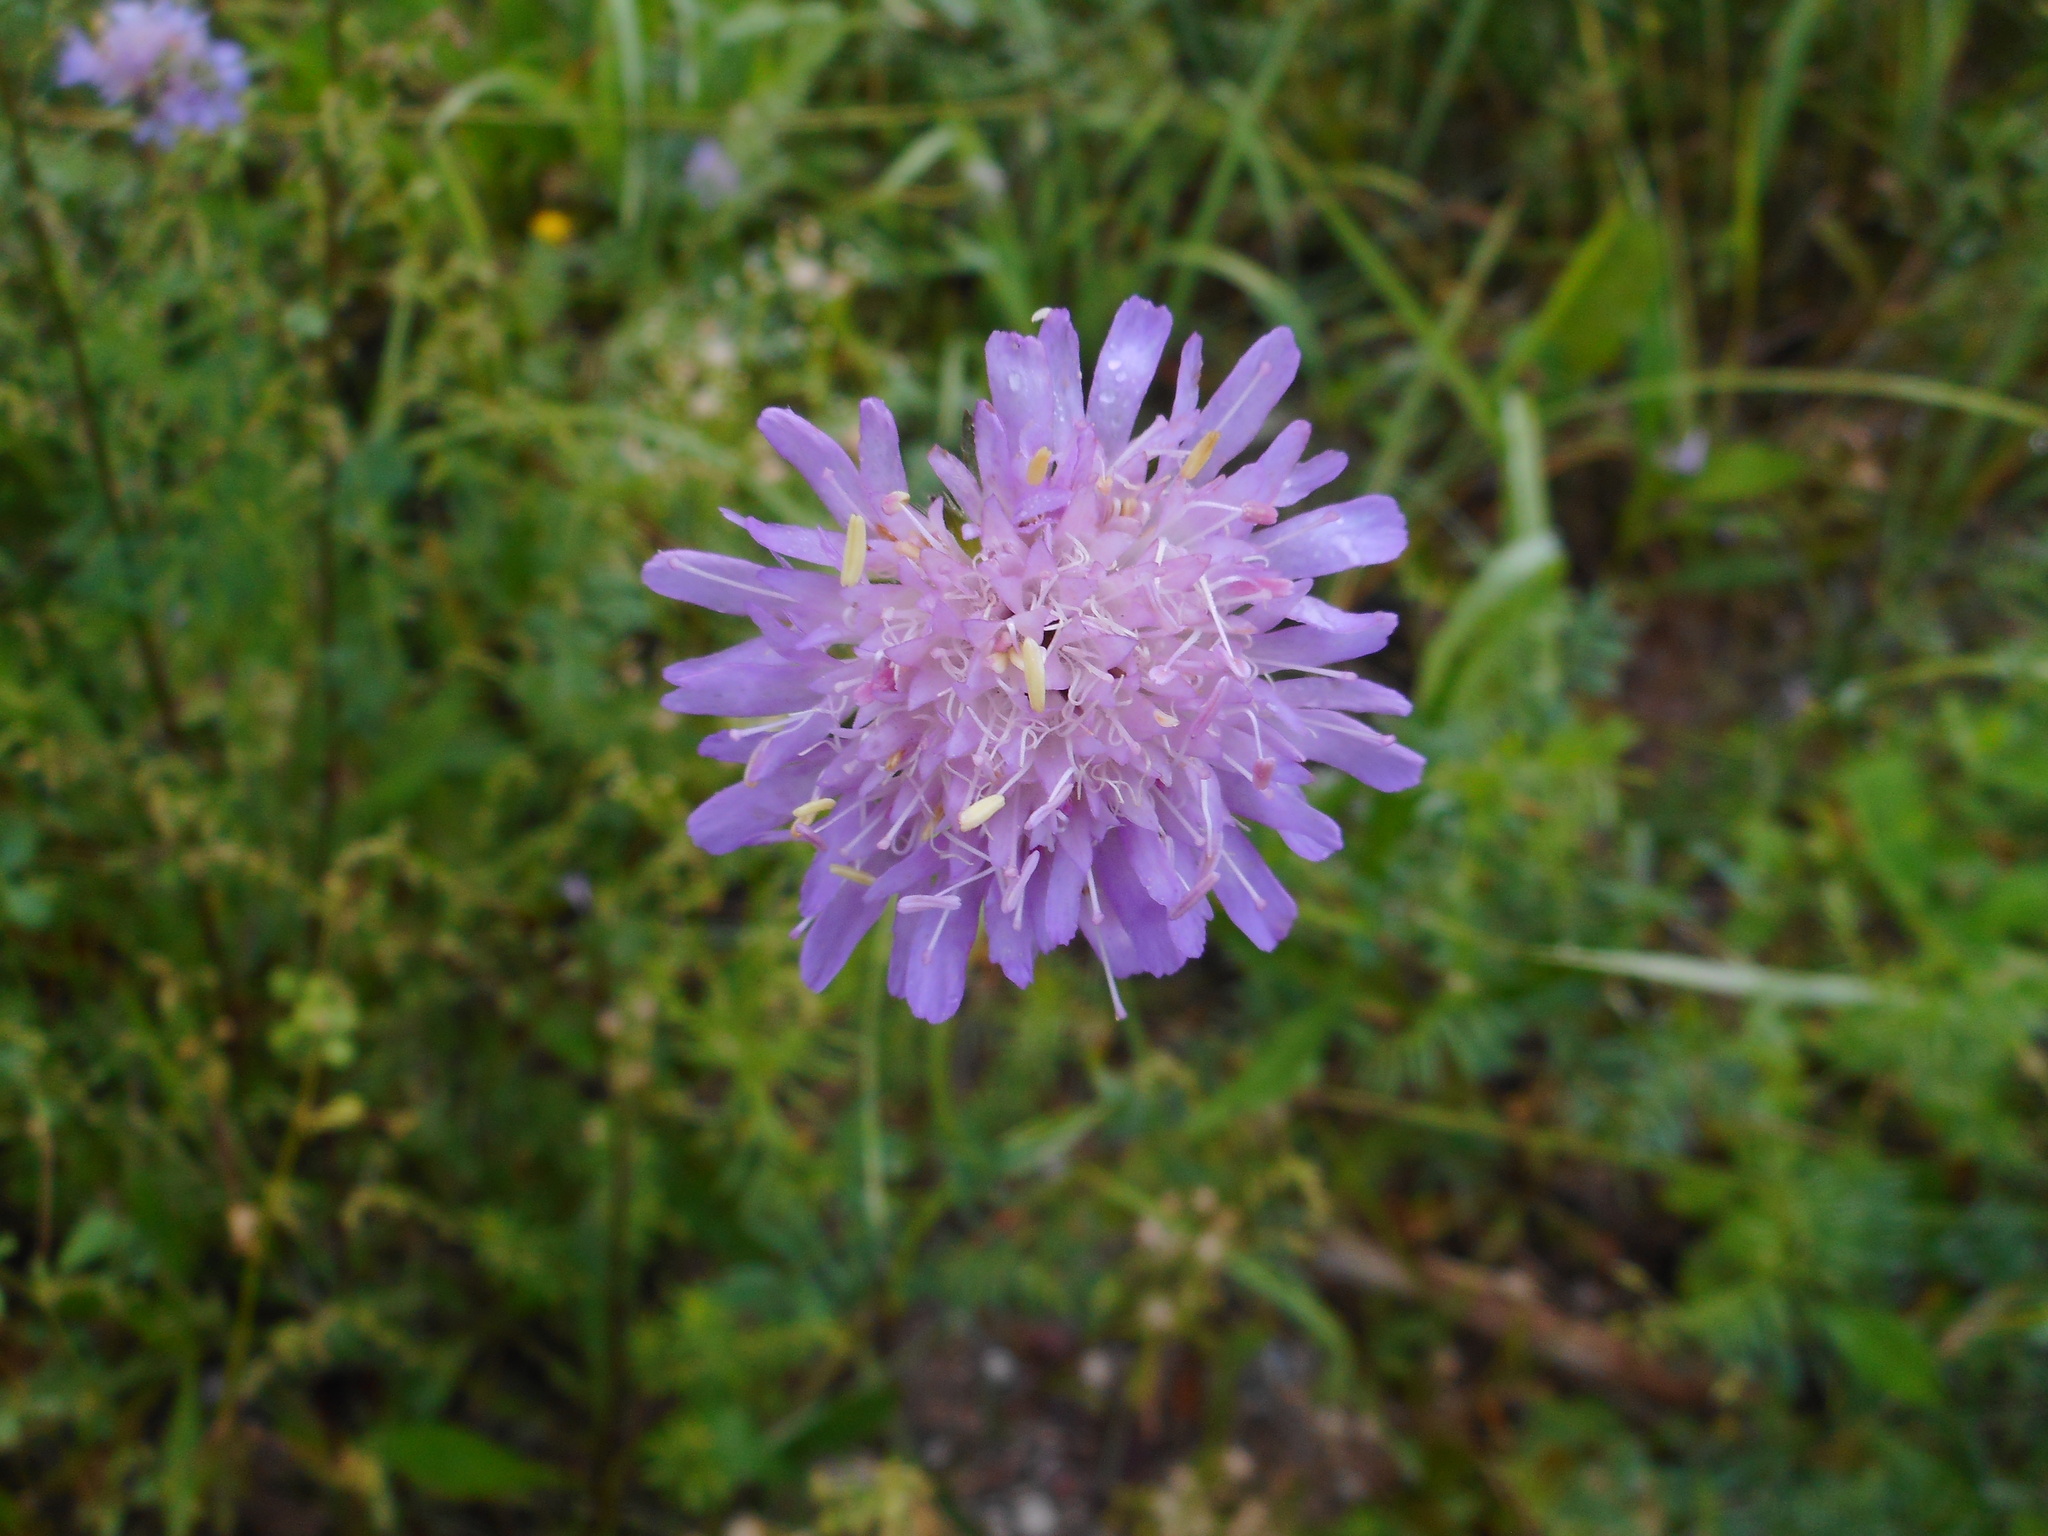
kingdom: Plantae
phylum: Tracheophyta
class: Magnoliopsida
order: Dipsacales
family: Caprifoliaceae
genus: Knautia
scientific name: Knautia arvensis
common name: Field scabiosa
